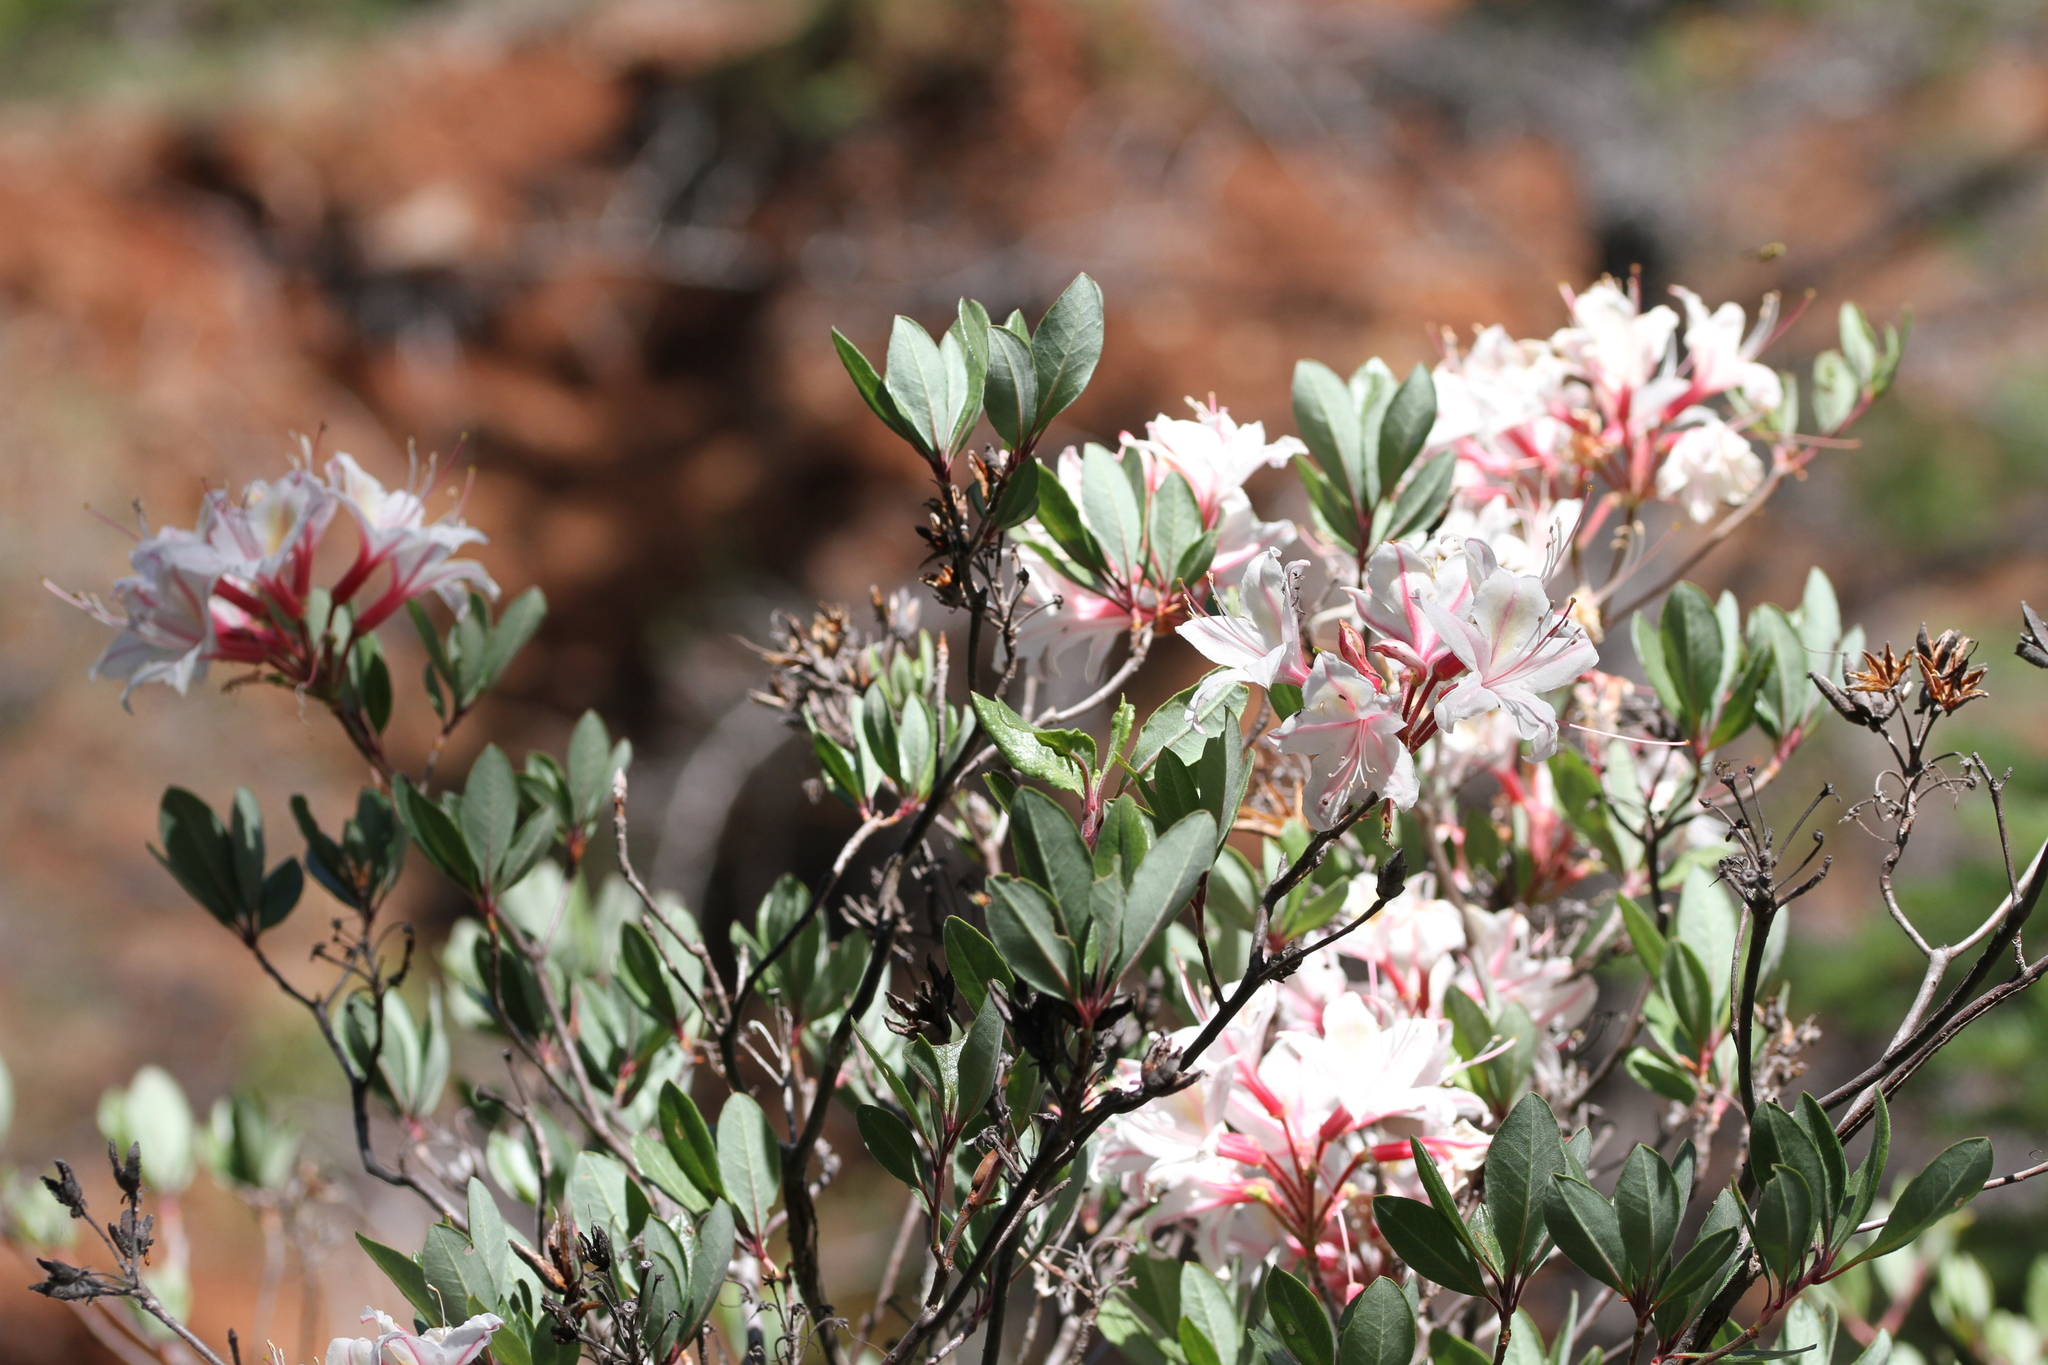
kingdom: Plantae
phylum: Tracheophyta
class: Magnoliopsida
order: Ericales
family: Ericaceae
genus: Rhododendron
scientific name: Rhododendron occidentale
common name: Western azalea
